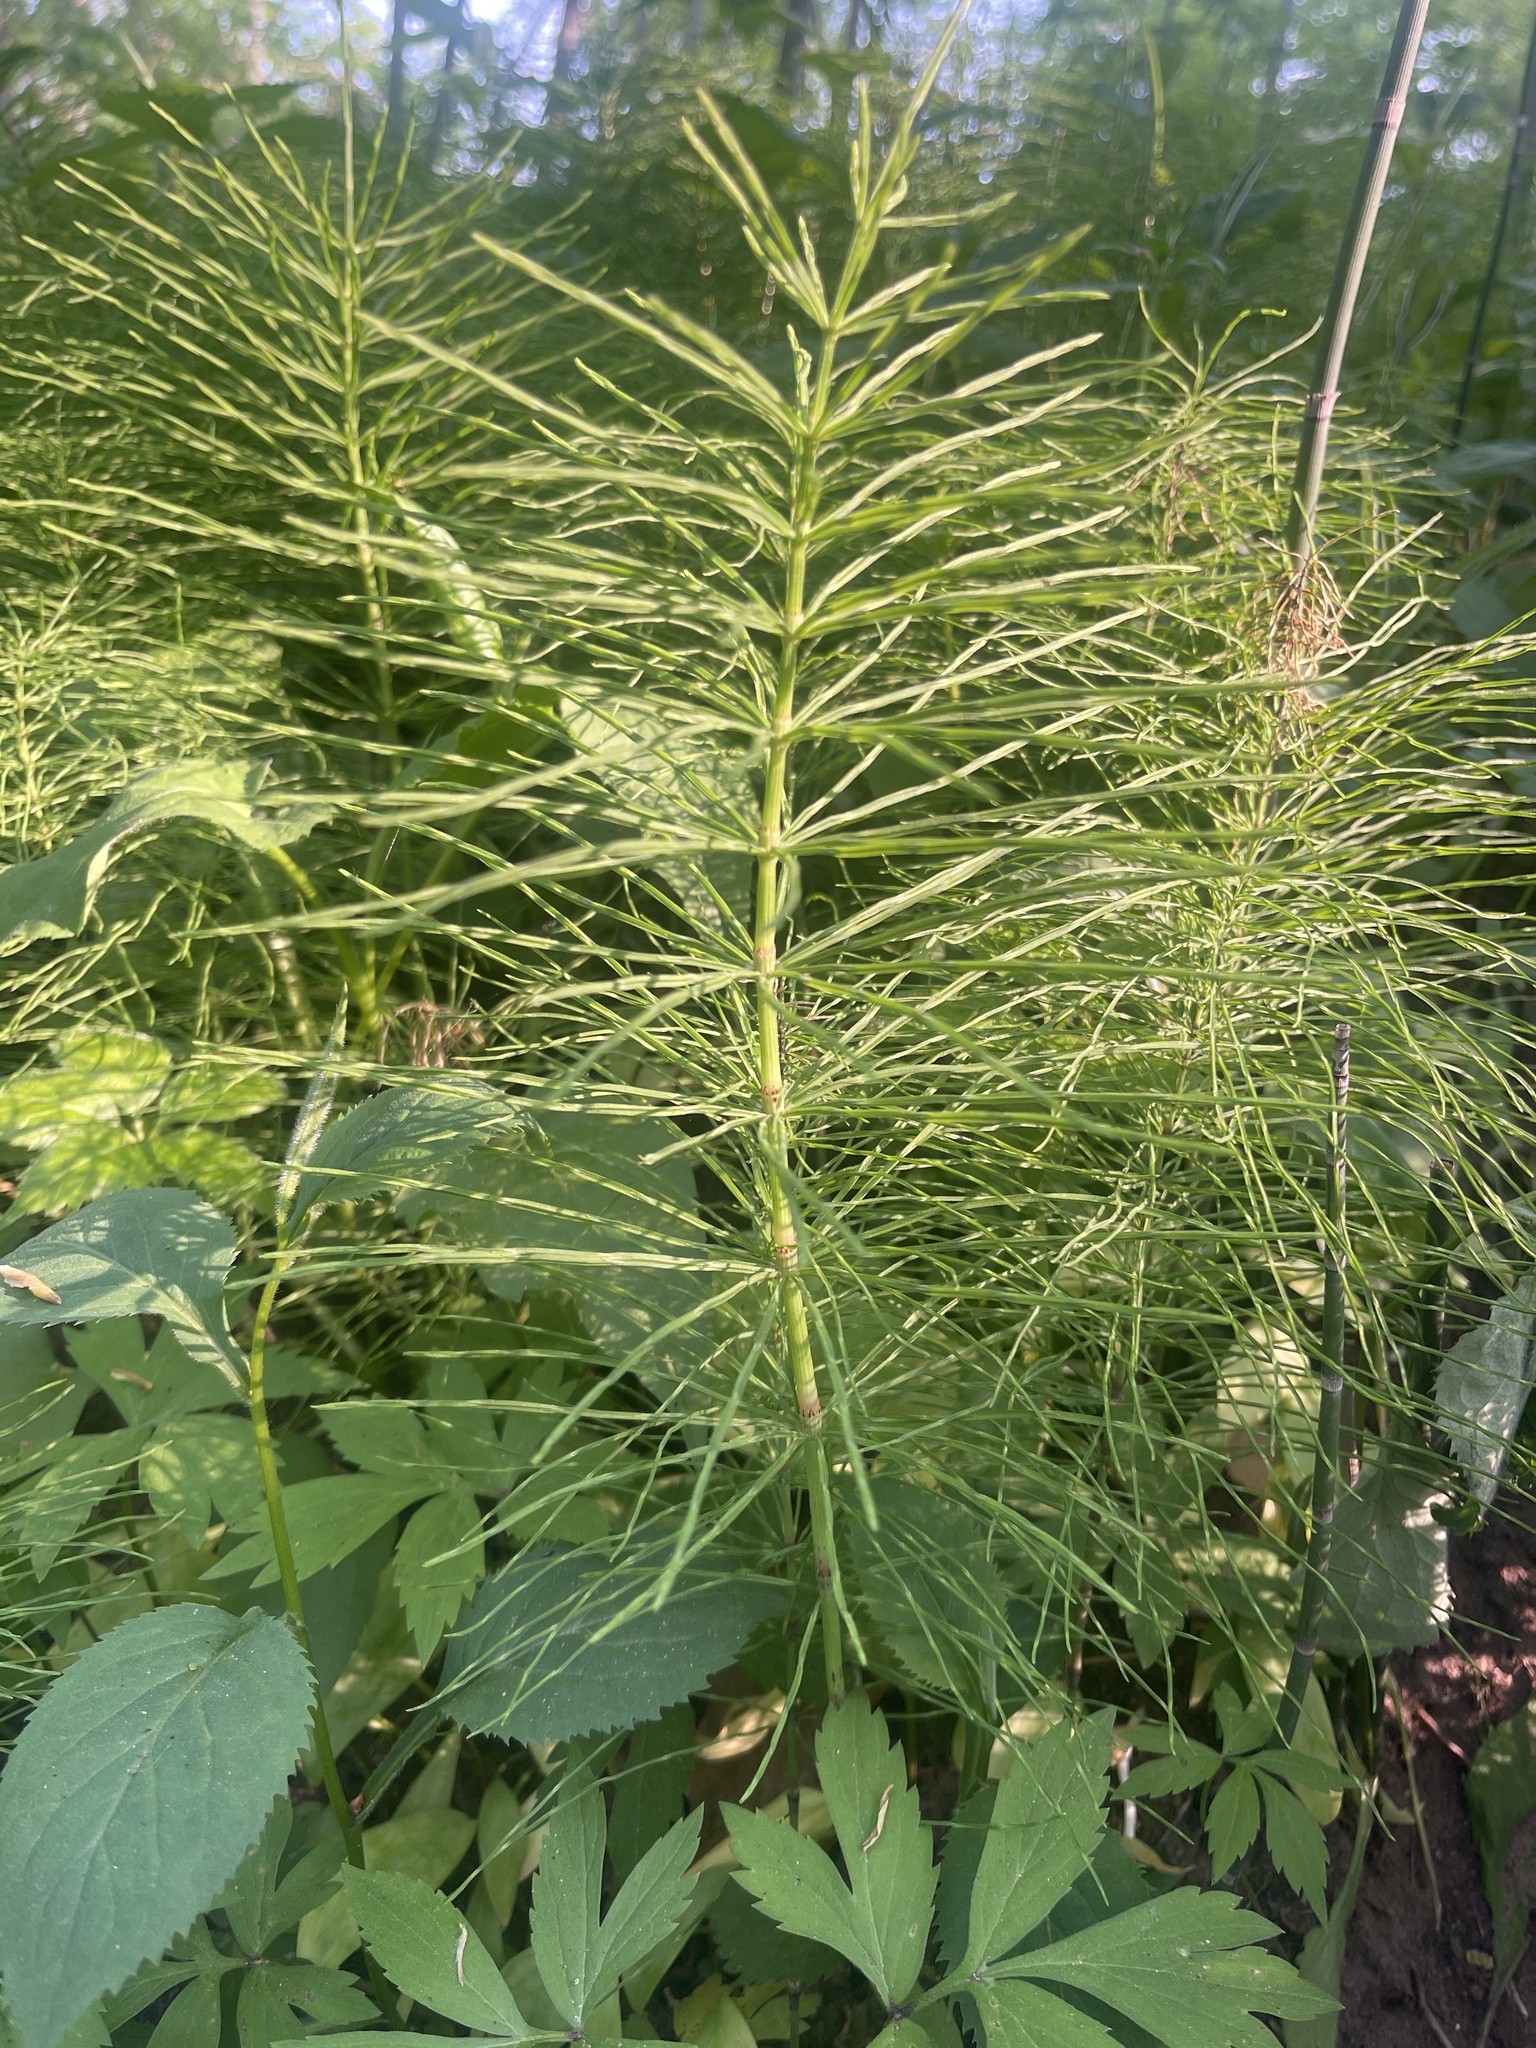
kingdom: Plantae
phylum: Tracheophyta
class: Polypodiopsida
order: Equisetales
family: Equisetaceae
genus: Equisetum
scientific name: Equisetum arvense
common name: Field horsetail
